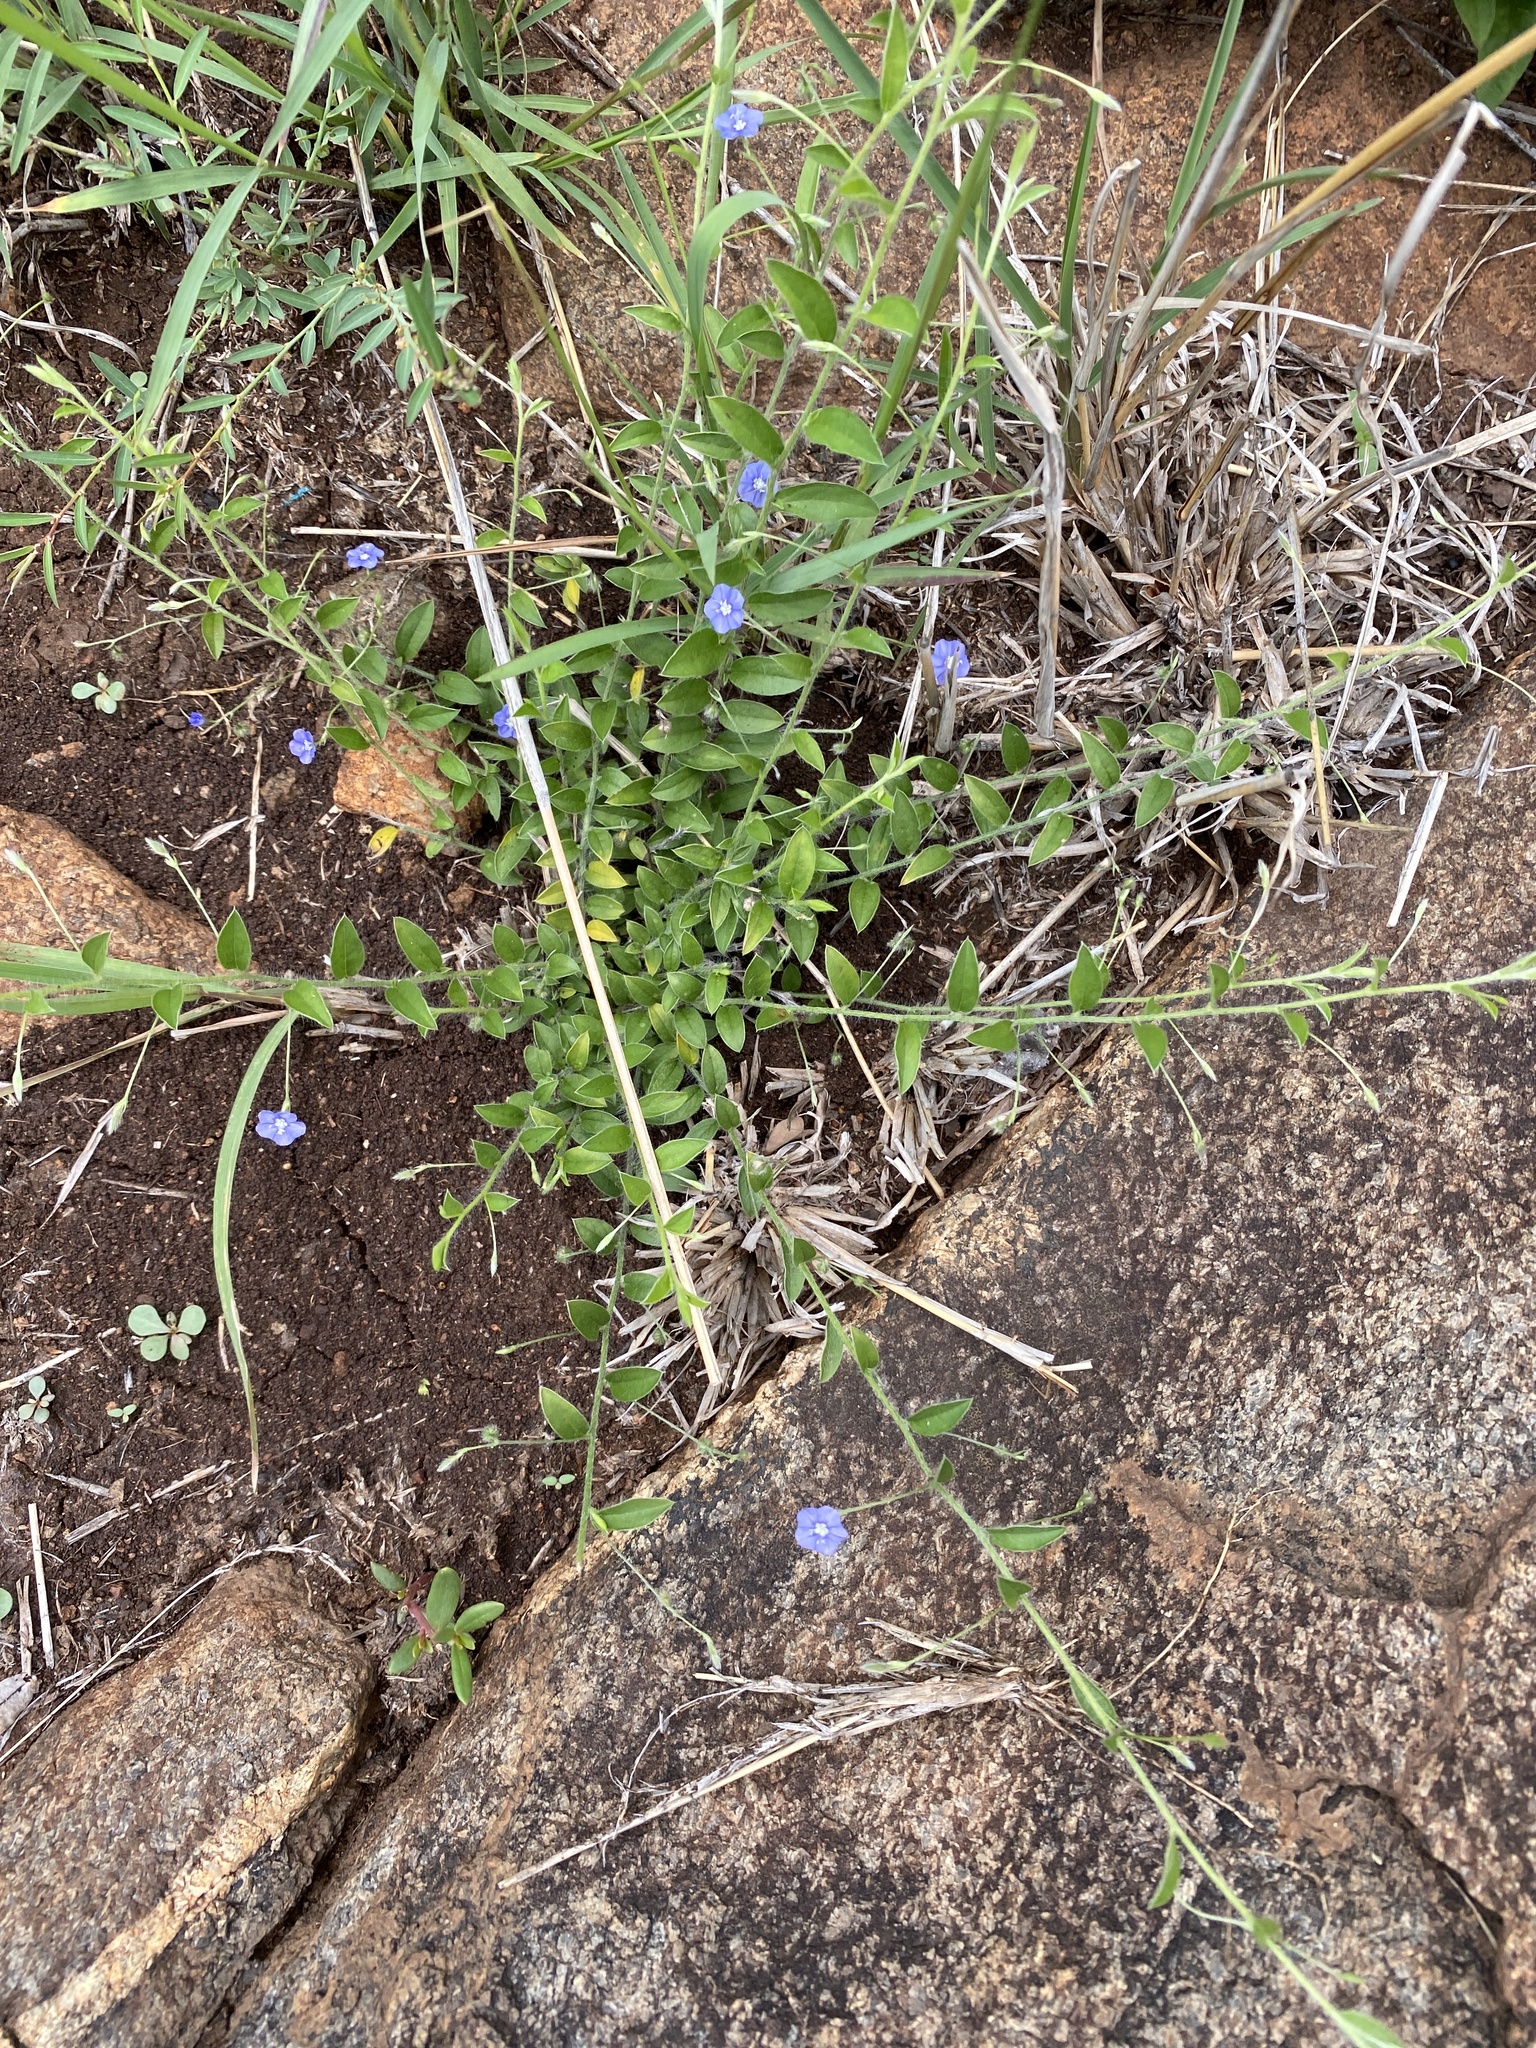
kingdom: Plantae
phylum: Tracheophyta
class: Magnoliopsida
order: Solanales
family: Convolvulaceae
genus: Evolvulus
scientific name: Evolvulus alsinoides
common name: Slender dwarf morning-glory
